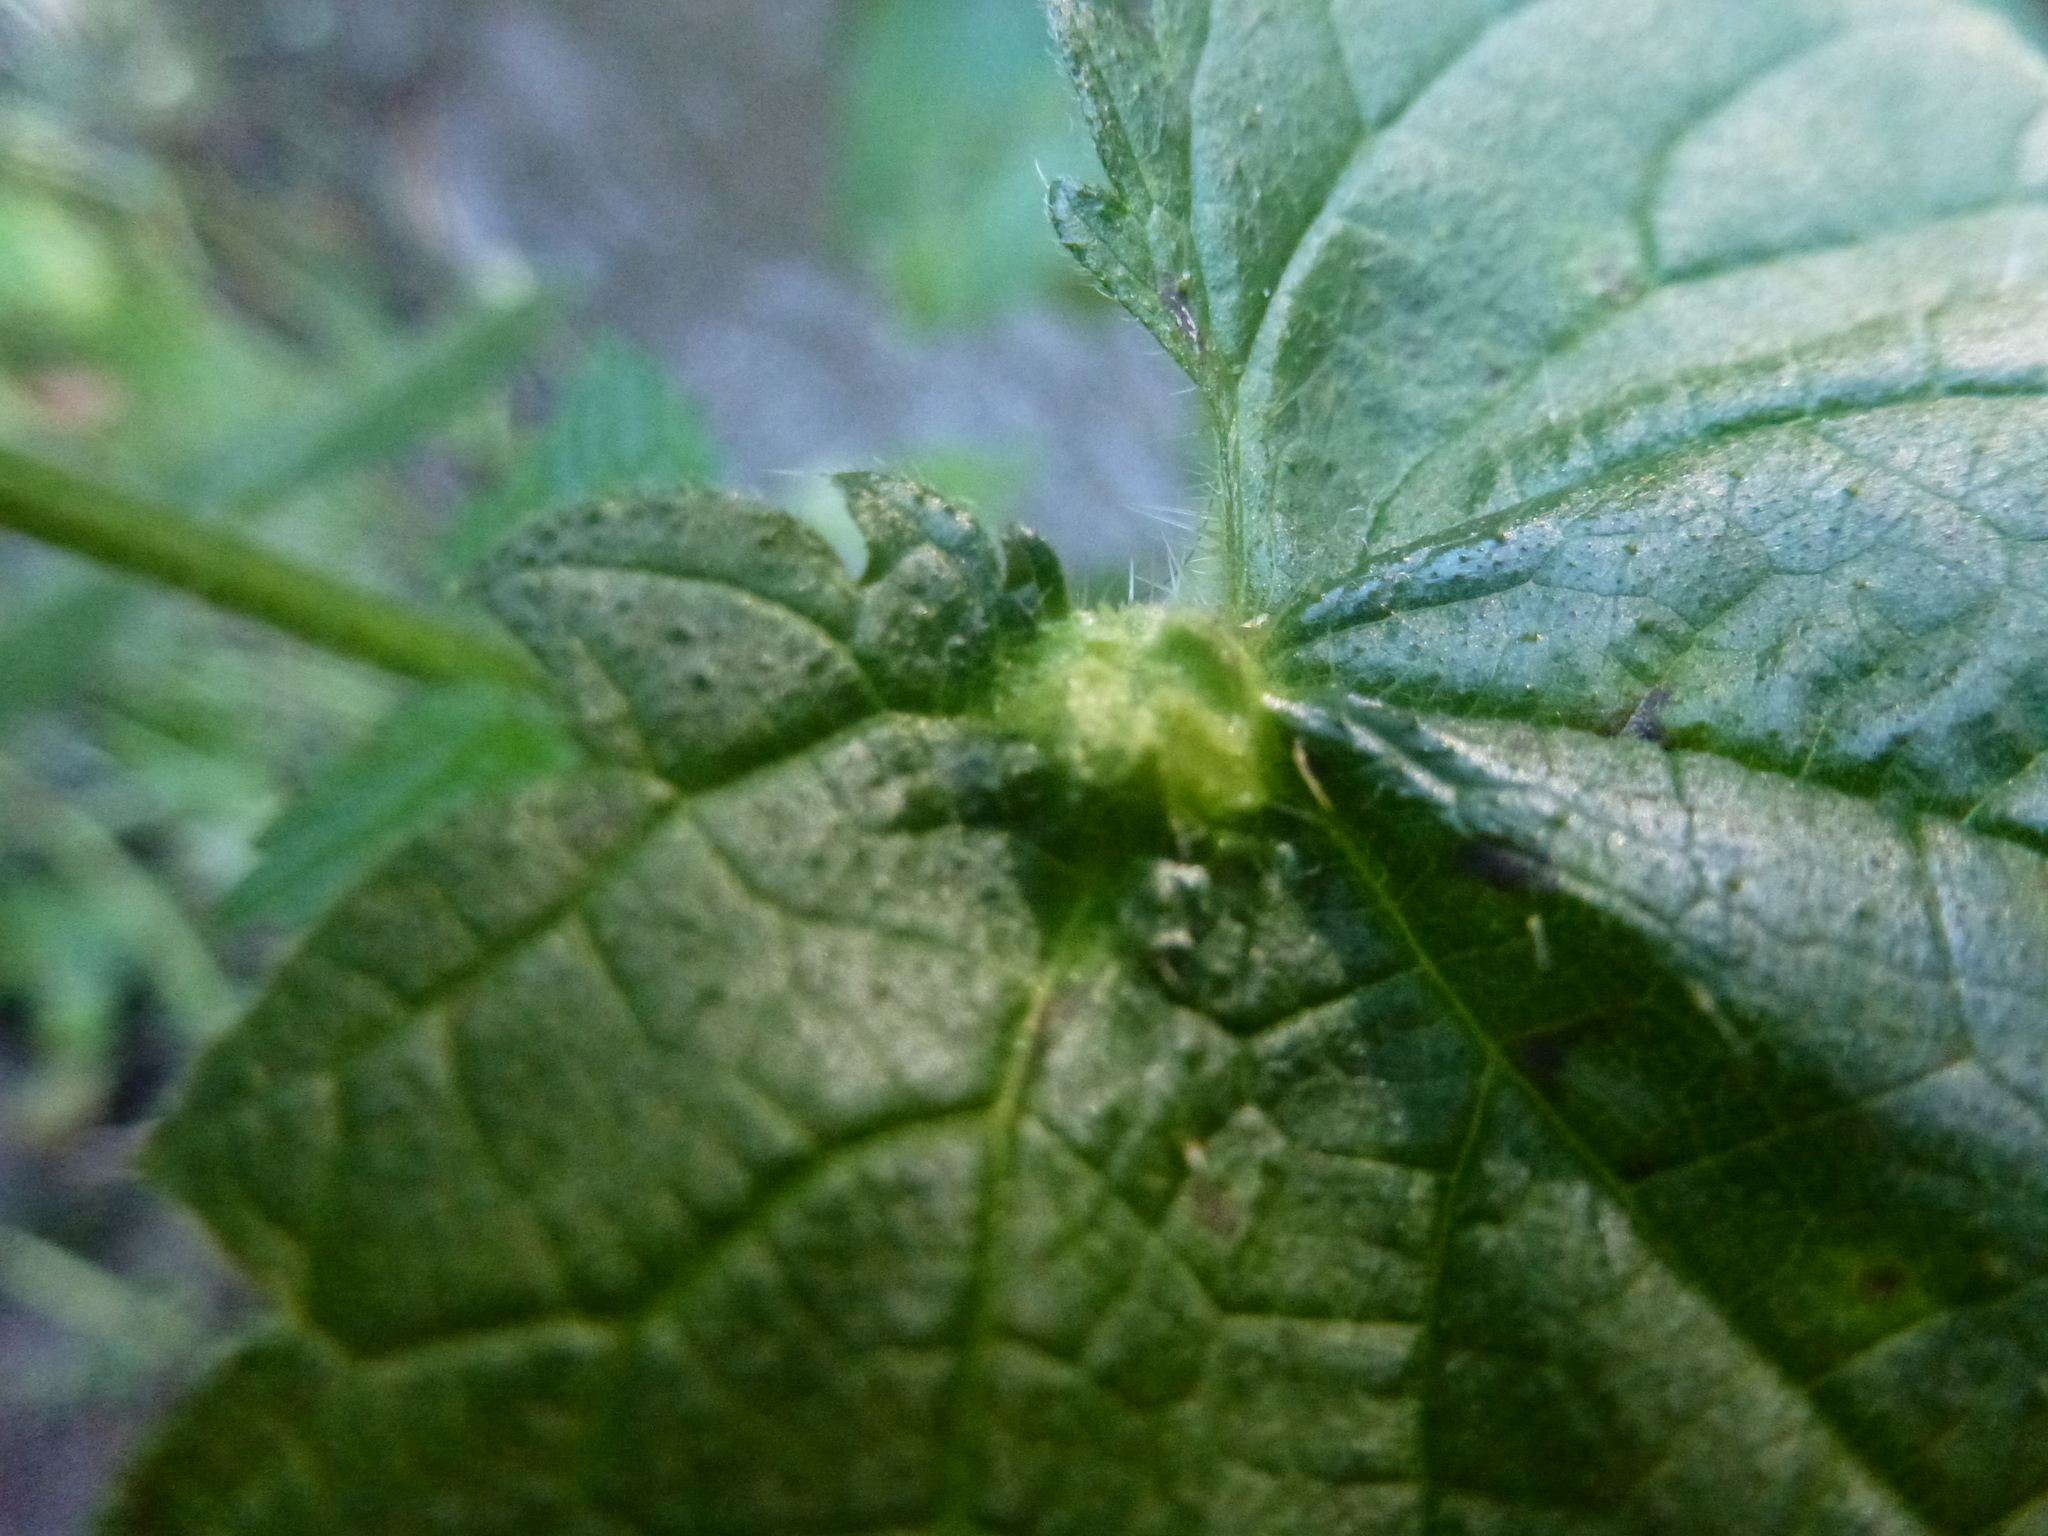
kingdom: Animalia
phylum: Arthropoda
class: Insecta
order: Diptera
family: Cecidomyiidae
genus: Dasineura
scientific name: Dasineura urticae
